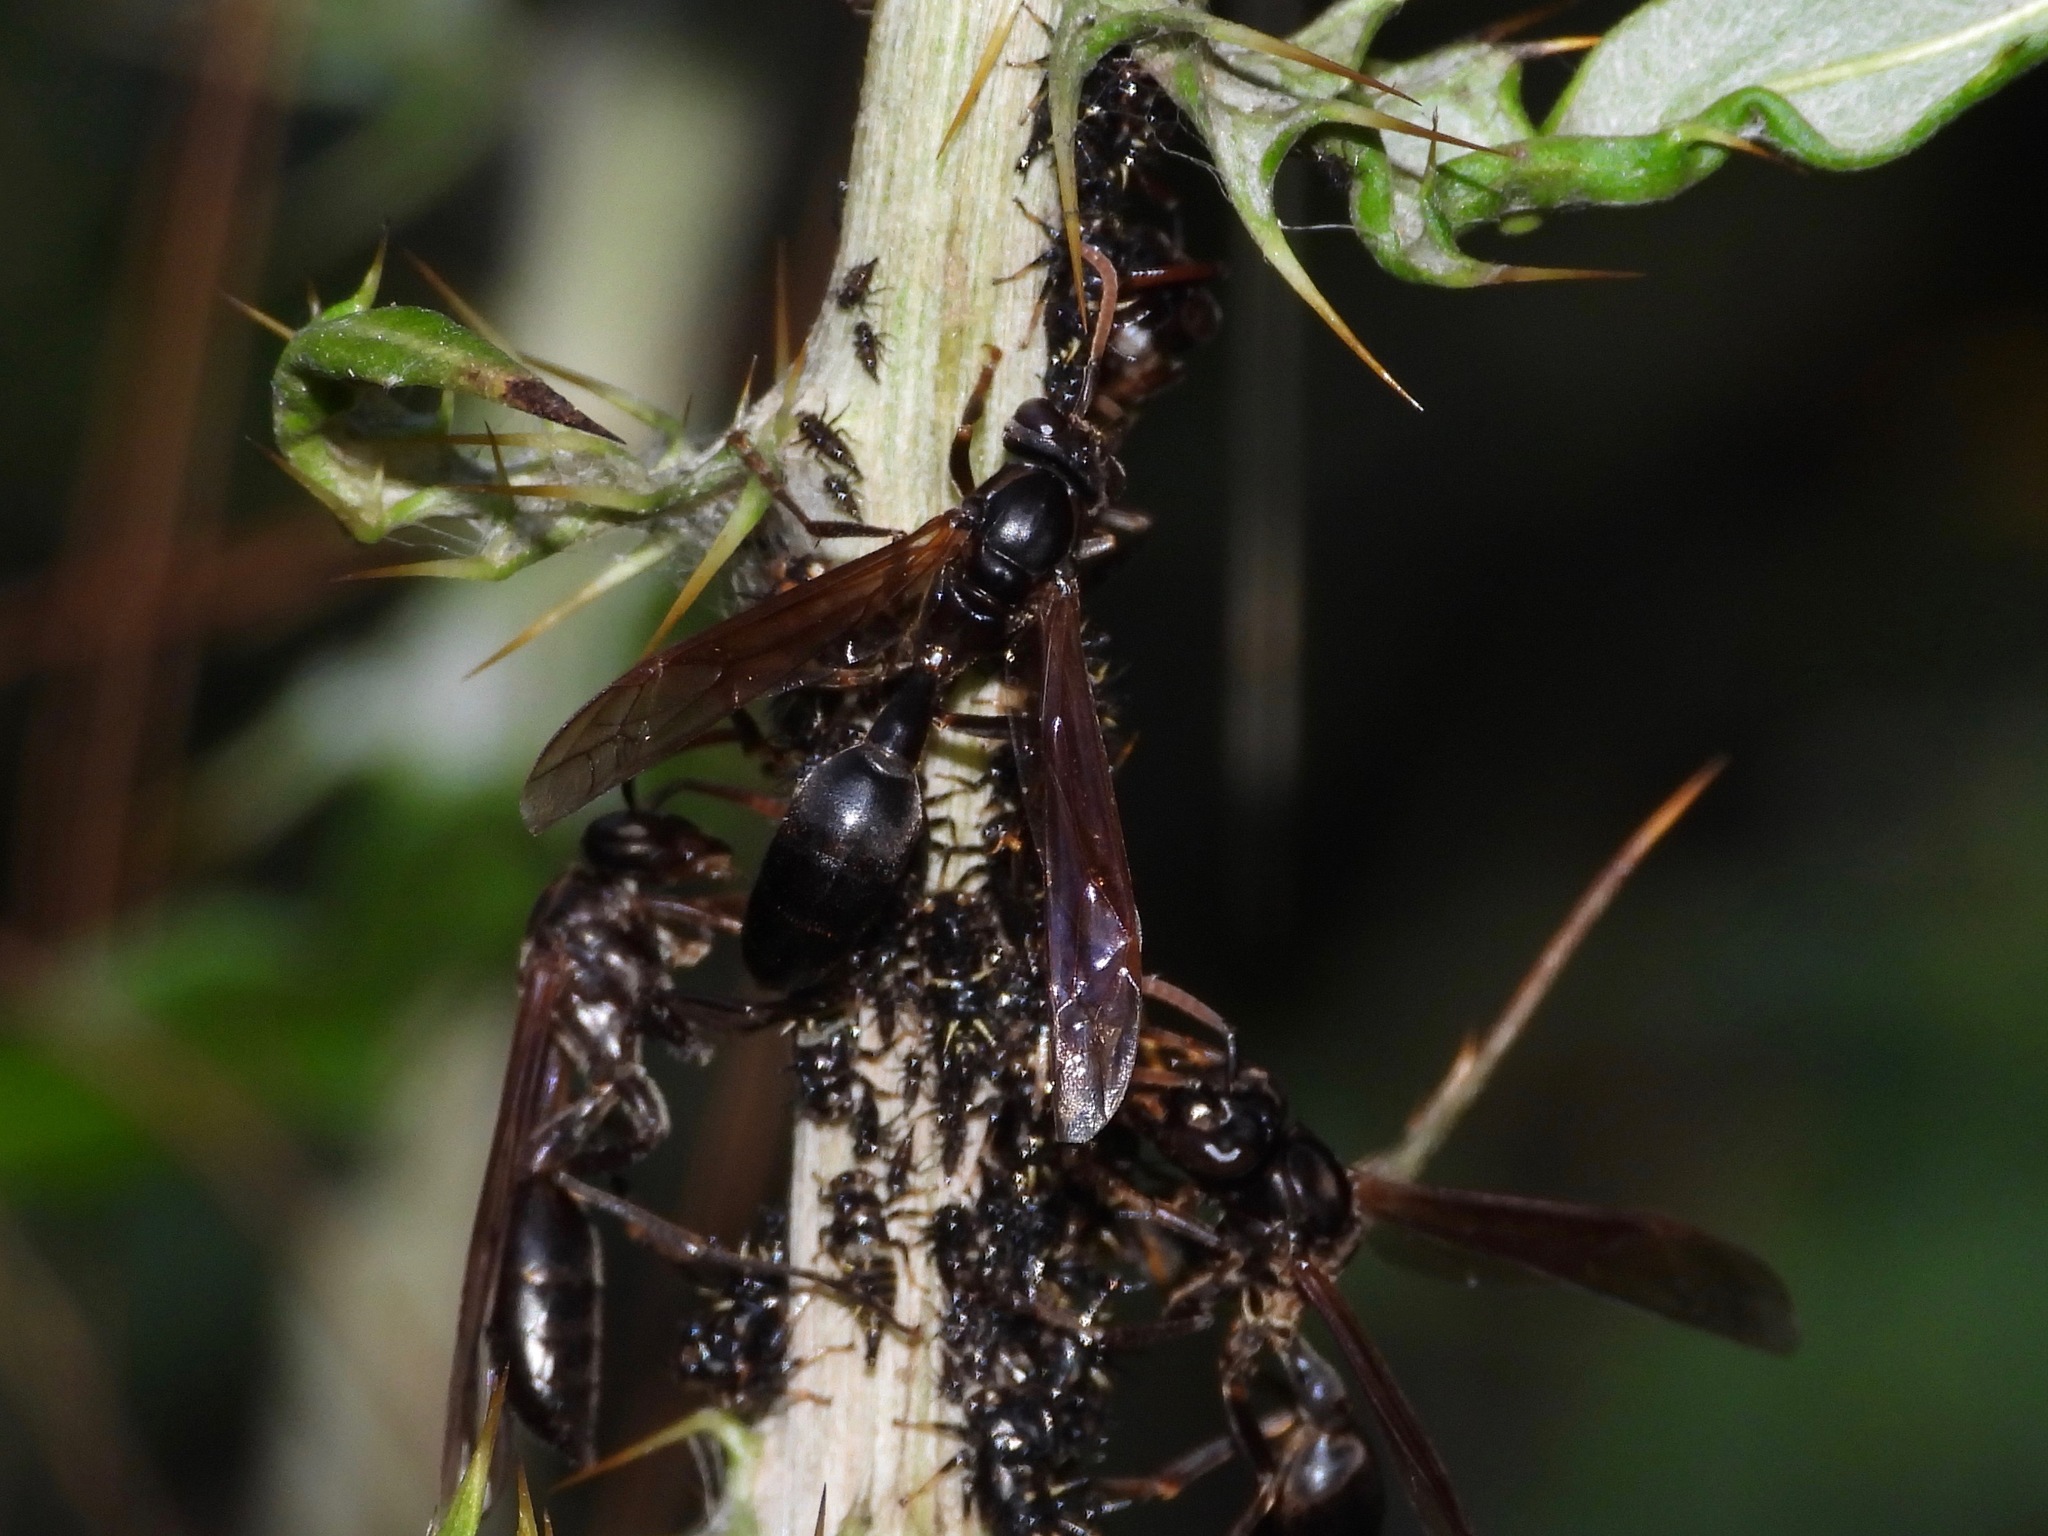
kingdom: Animalia
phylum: Arthropoda
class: Insecta
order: Hymenoptera
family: Vespidae
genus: Agelaia
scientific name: Agelaia panamensis
